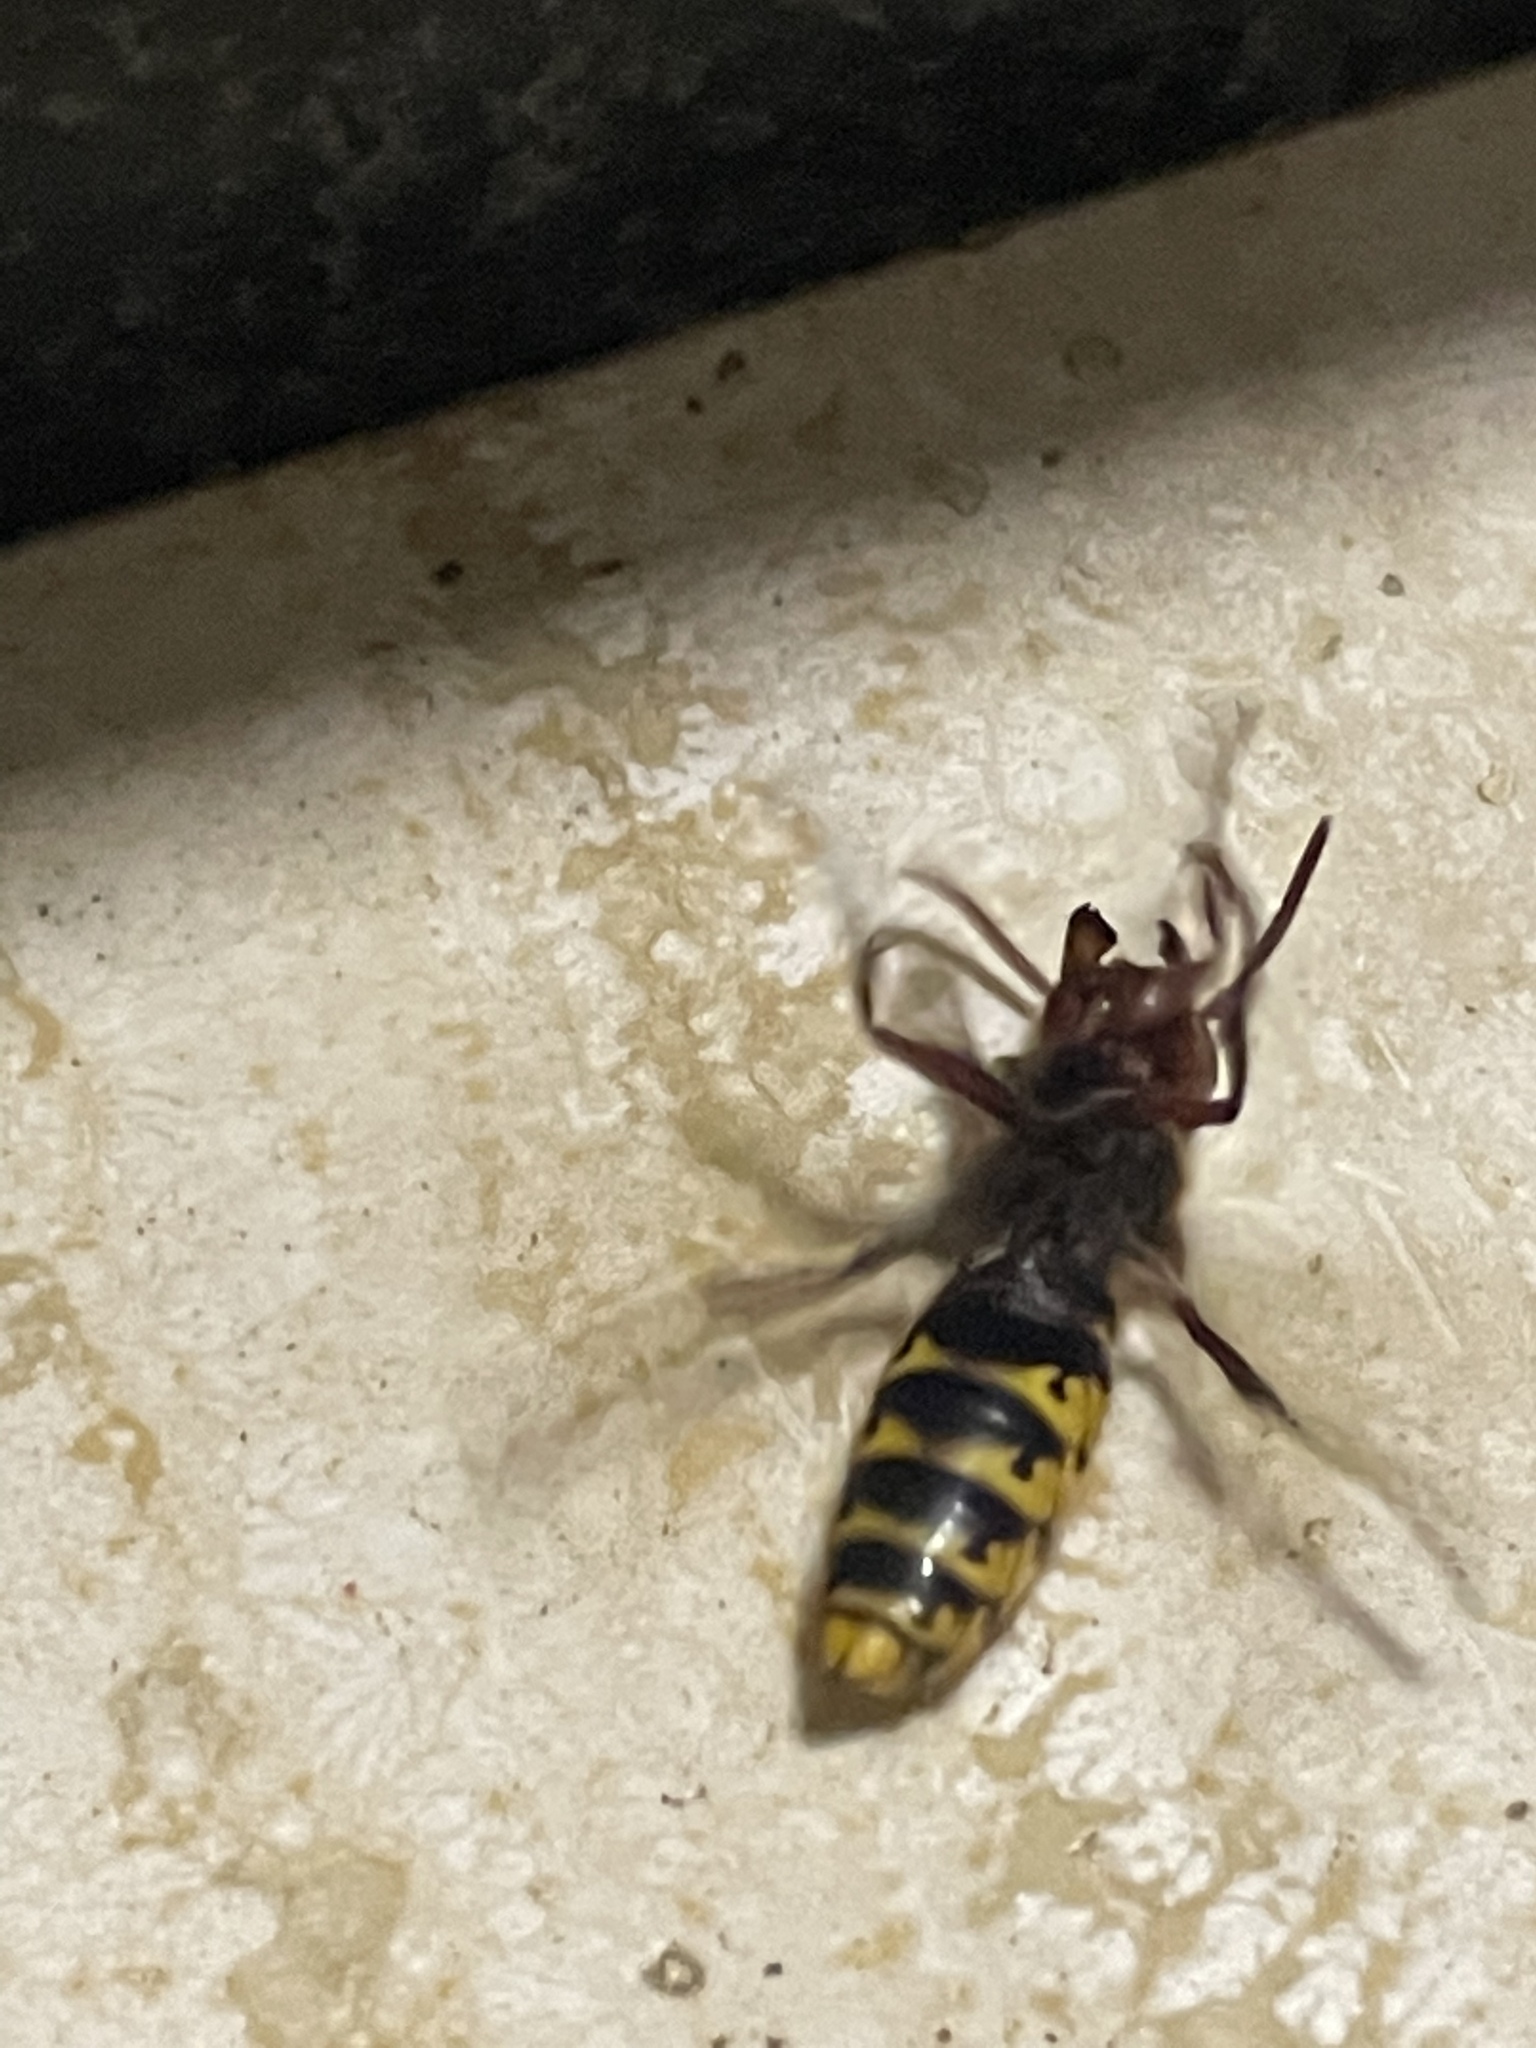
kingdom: Animalia
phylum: Arthropoda
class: Insecta
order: Hymenoptera
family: Vespidae
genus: Vespa
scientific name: Vespa crabro
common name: Hornet
